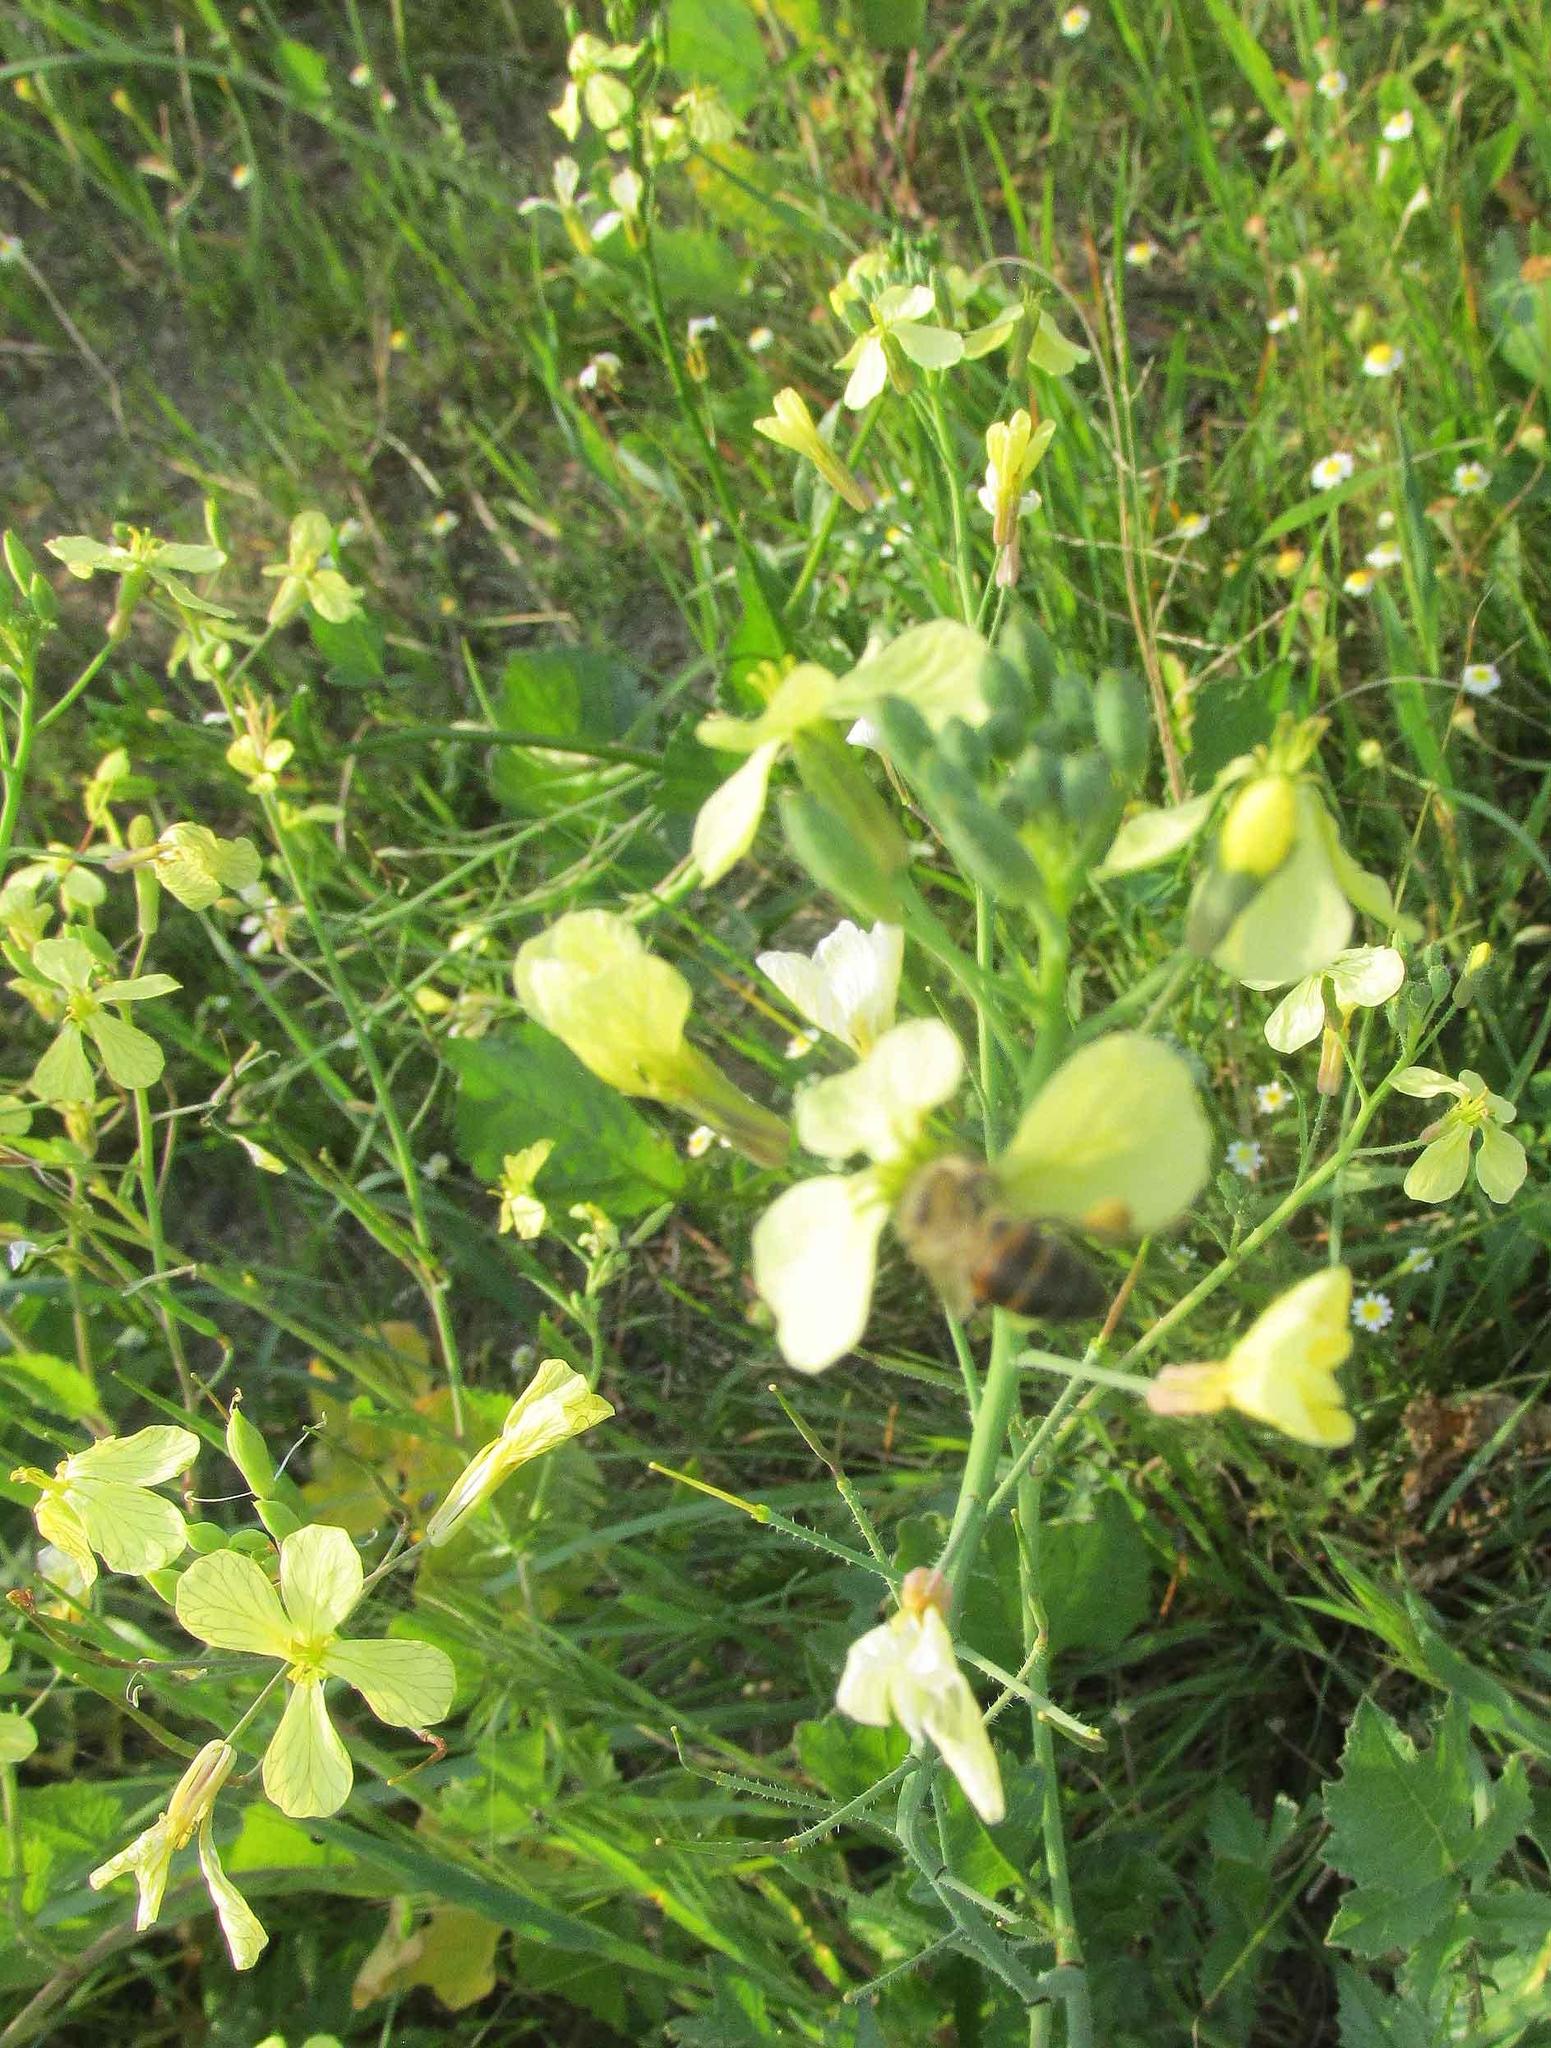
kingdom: Plantae
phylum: Tracheophyta
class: Magnoliopsida
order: Brassicales
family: Brassicaceae
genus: Raphanus
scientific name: Raphanus raphanistrum
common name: Wild radish
